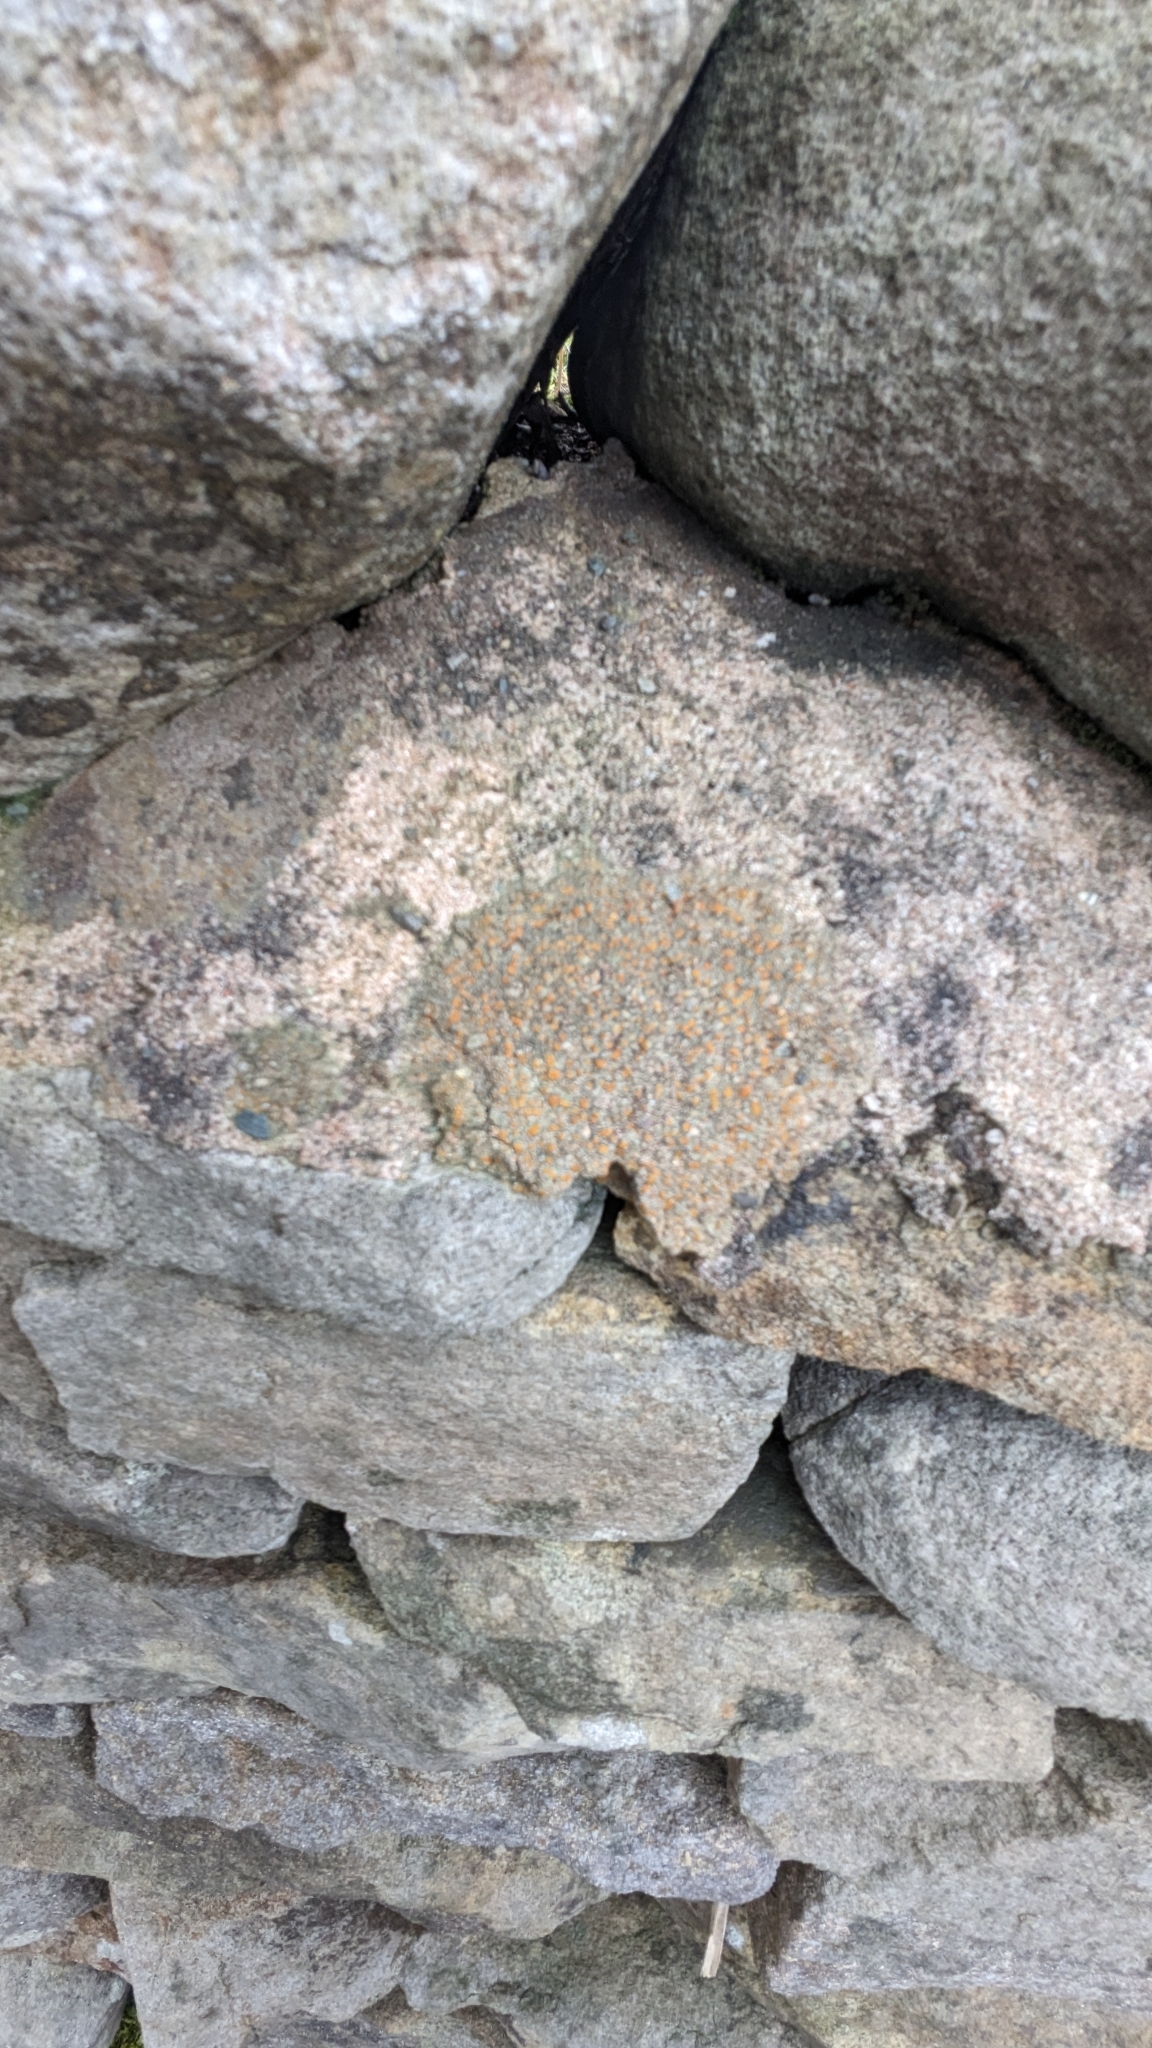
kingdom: Fungi
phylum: Ascomycota
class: Lecanoromycetes
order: Lecanorales
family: Psoraceae
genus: Protoblastenia
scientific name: Protoblastenia rupestris
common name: Chewing gum lichen
